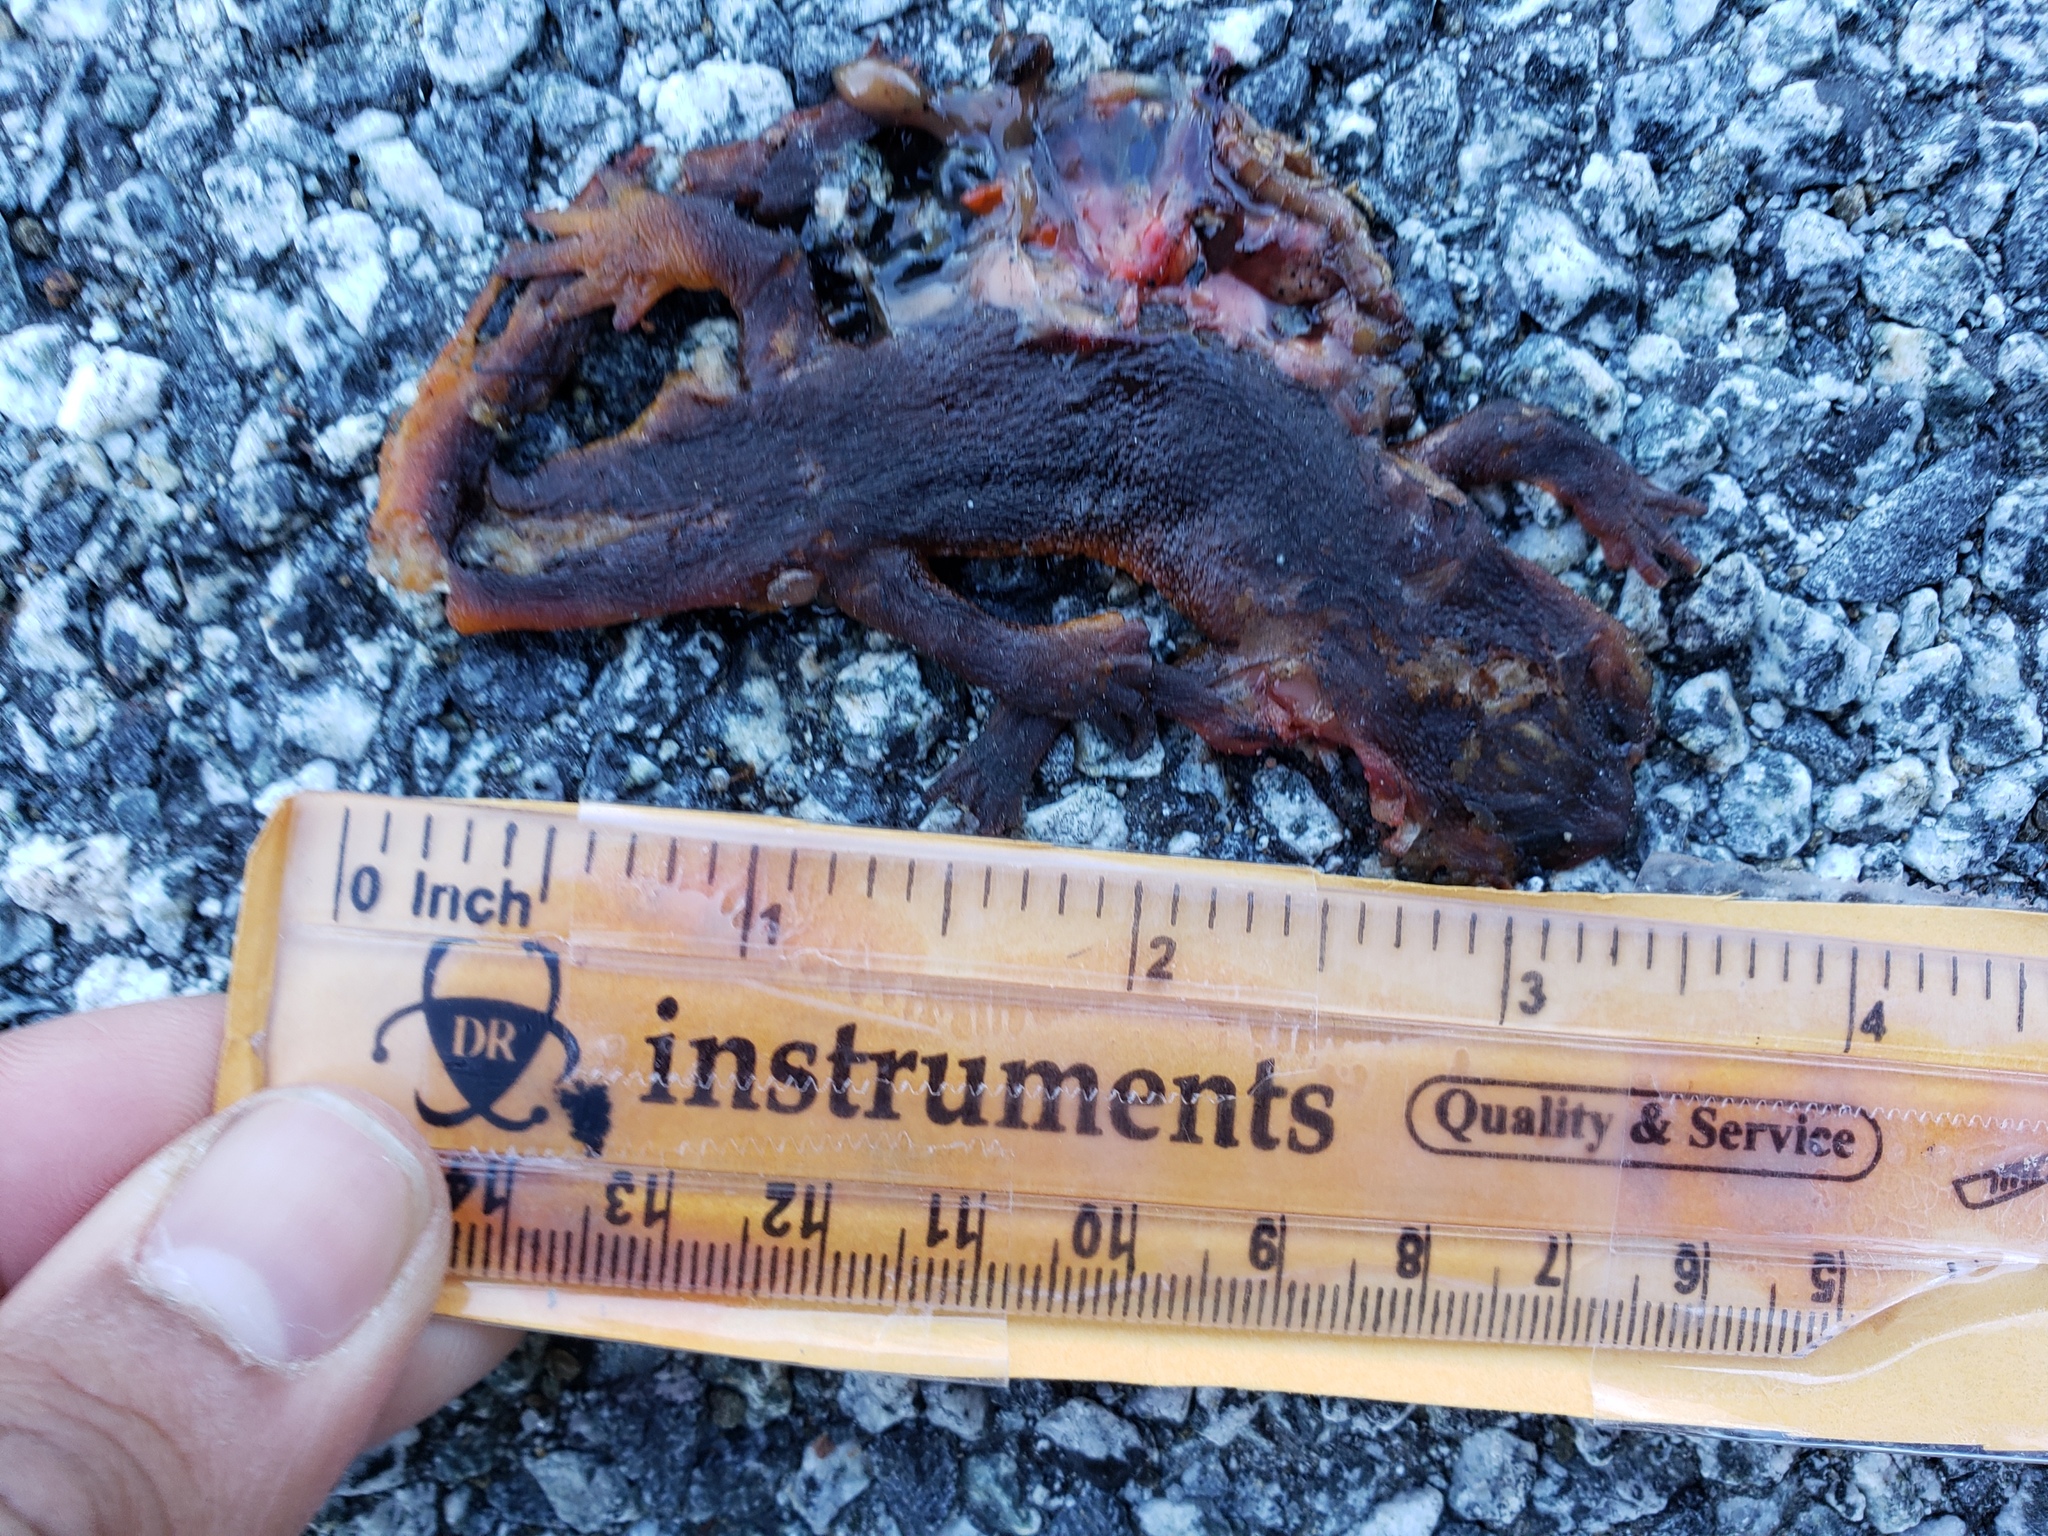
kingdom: Animalia
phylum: Chordata
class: Amphibia
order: Caudata
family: Salamandridae
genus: Taricha
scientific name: Taricha
